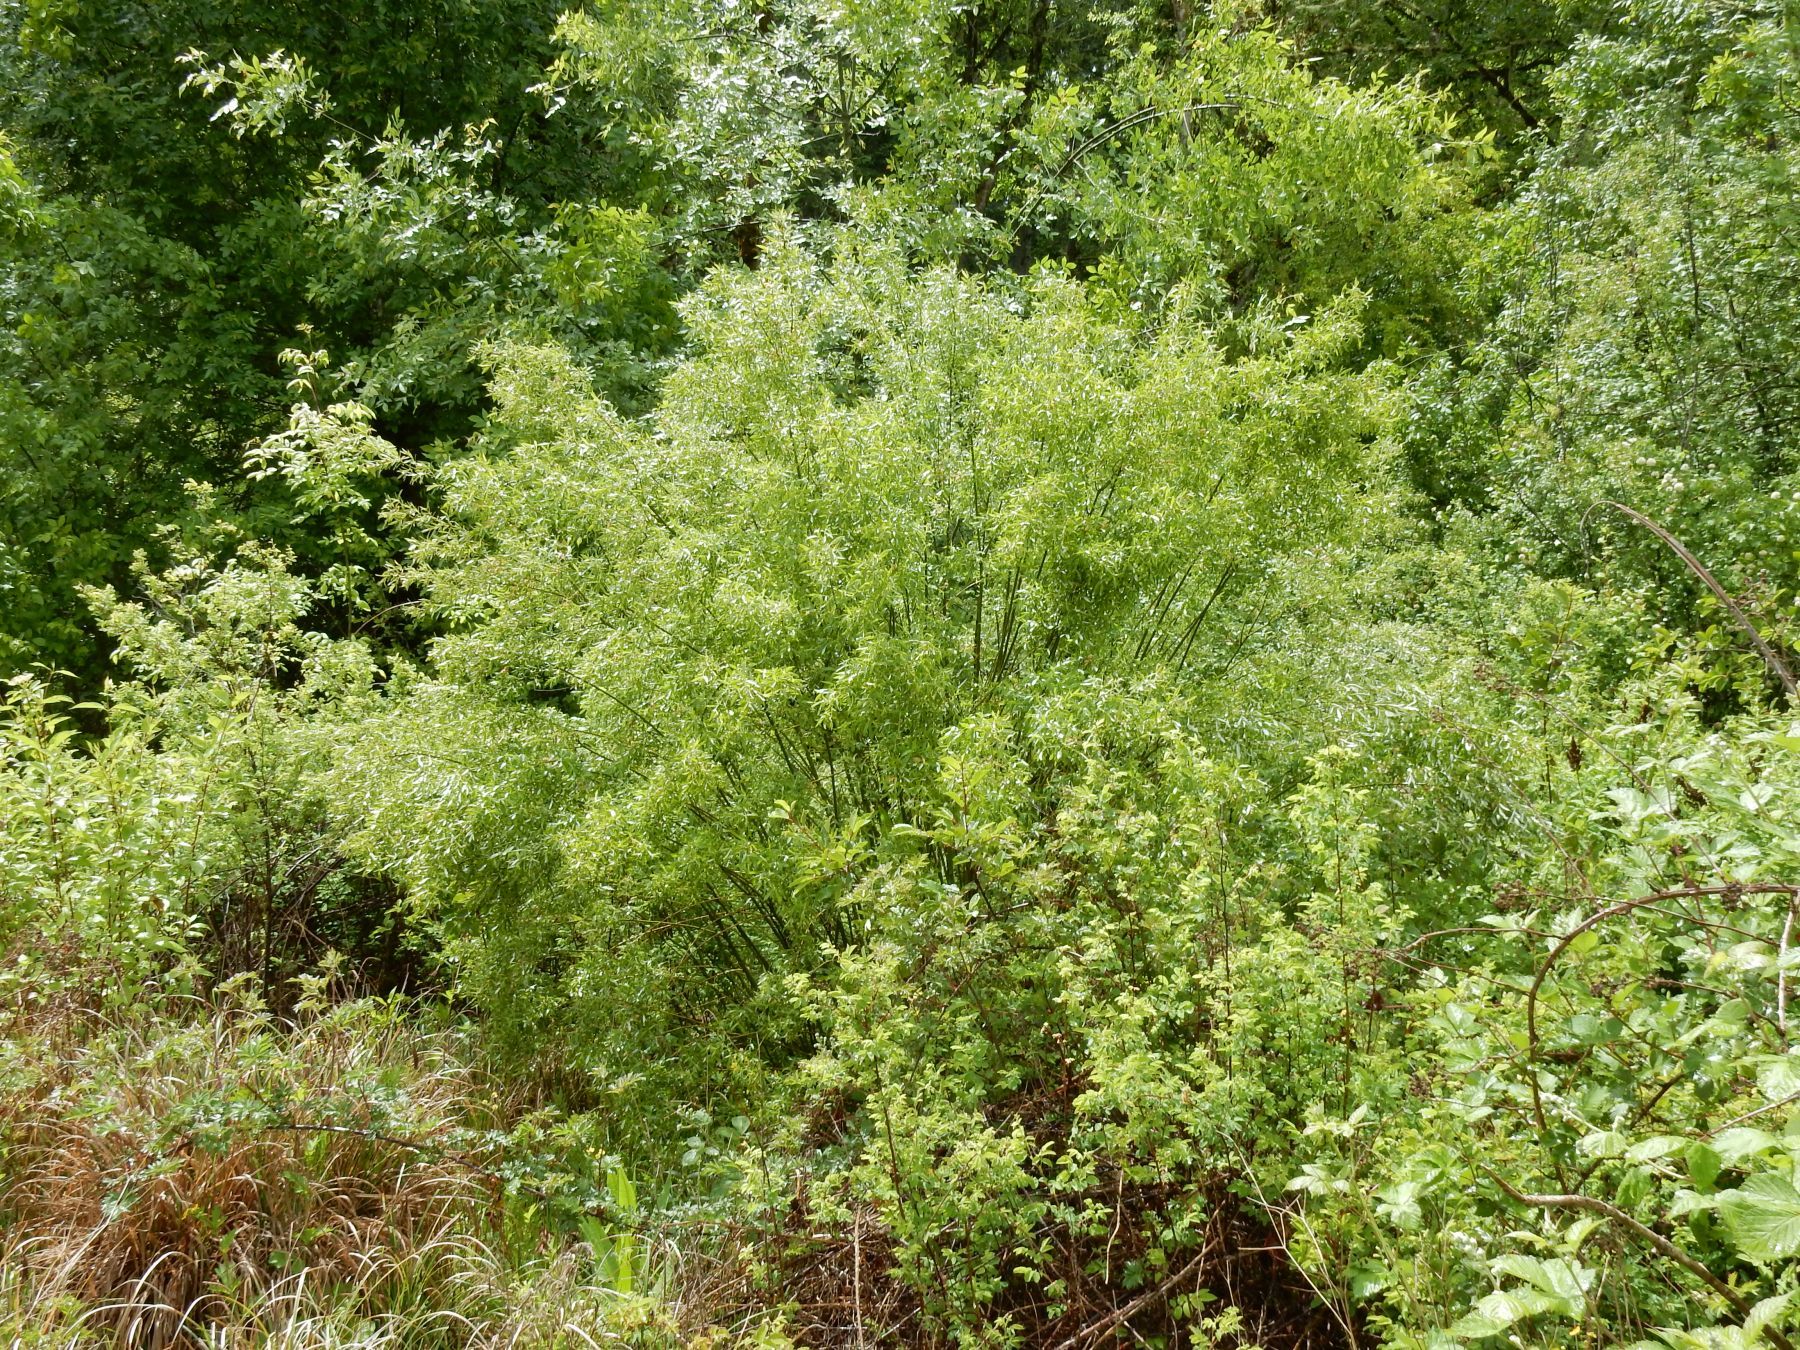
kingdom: Plantae
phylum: Tracheophyta
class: Magnoliopsida
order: Malpighiales
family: Salicaceae
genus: Salix
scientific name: Salix geyeriana
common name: Geyer's willow
